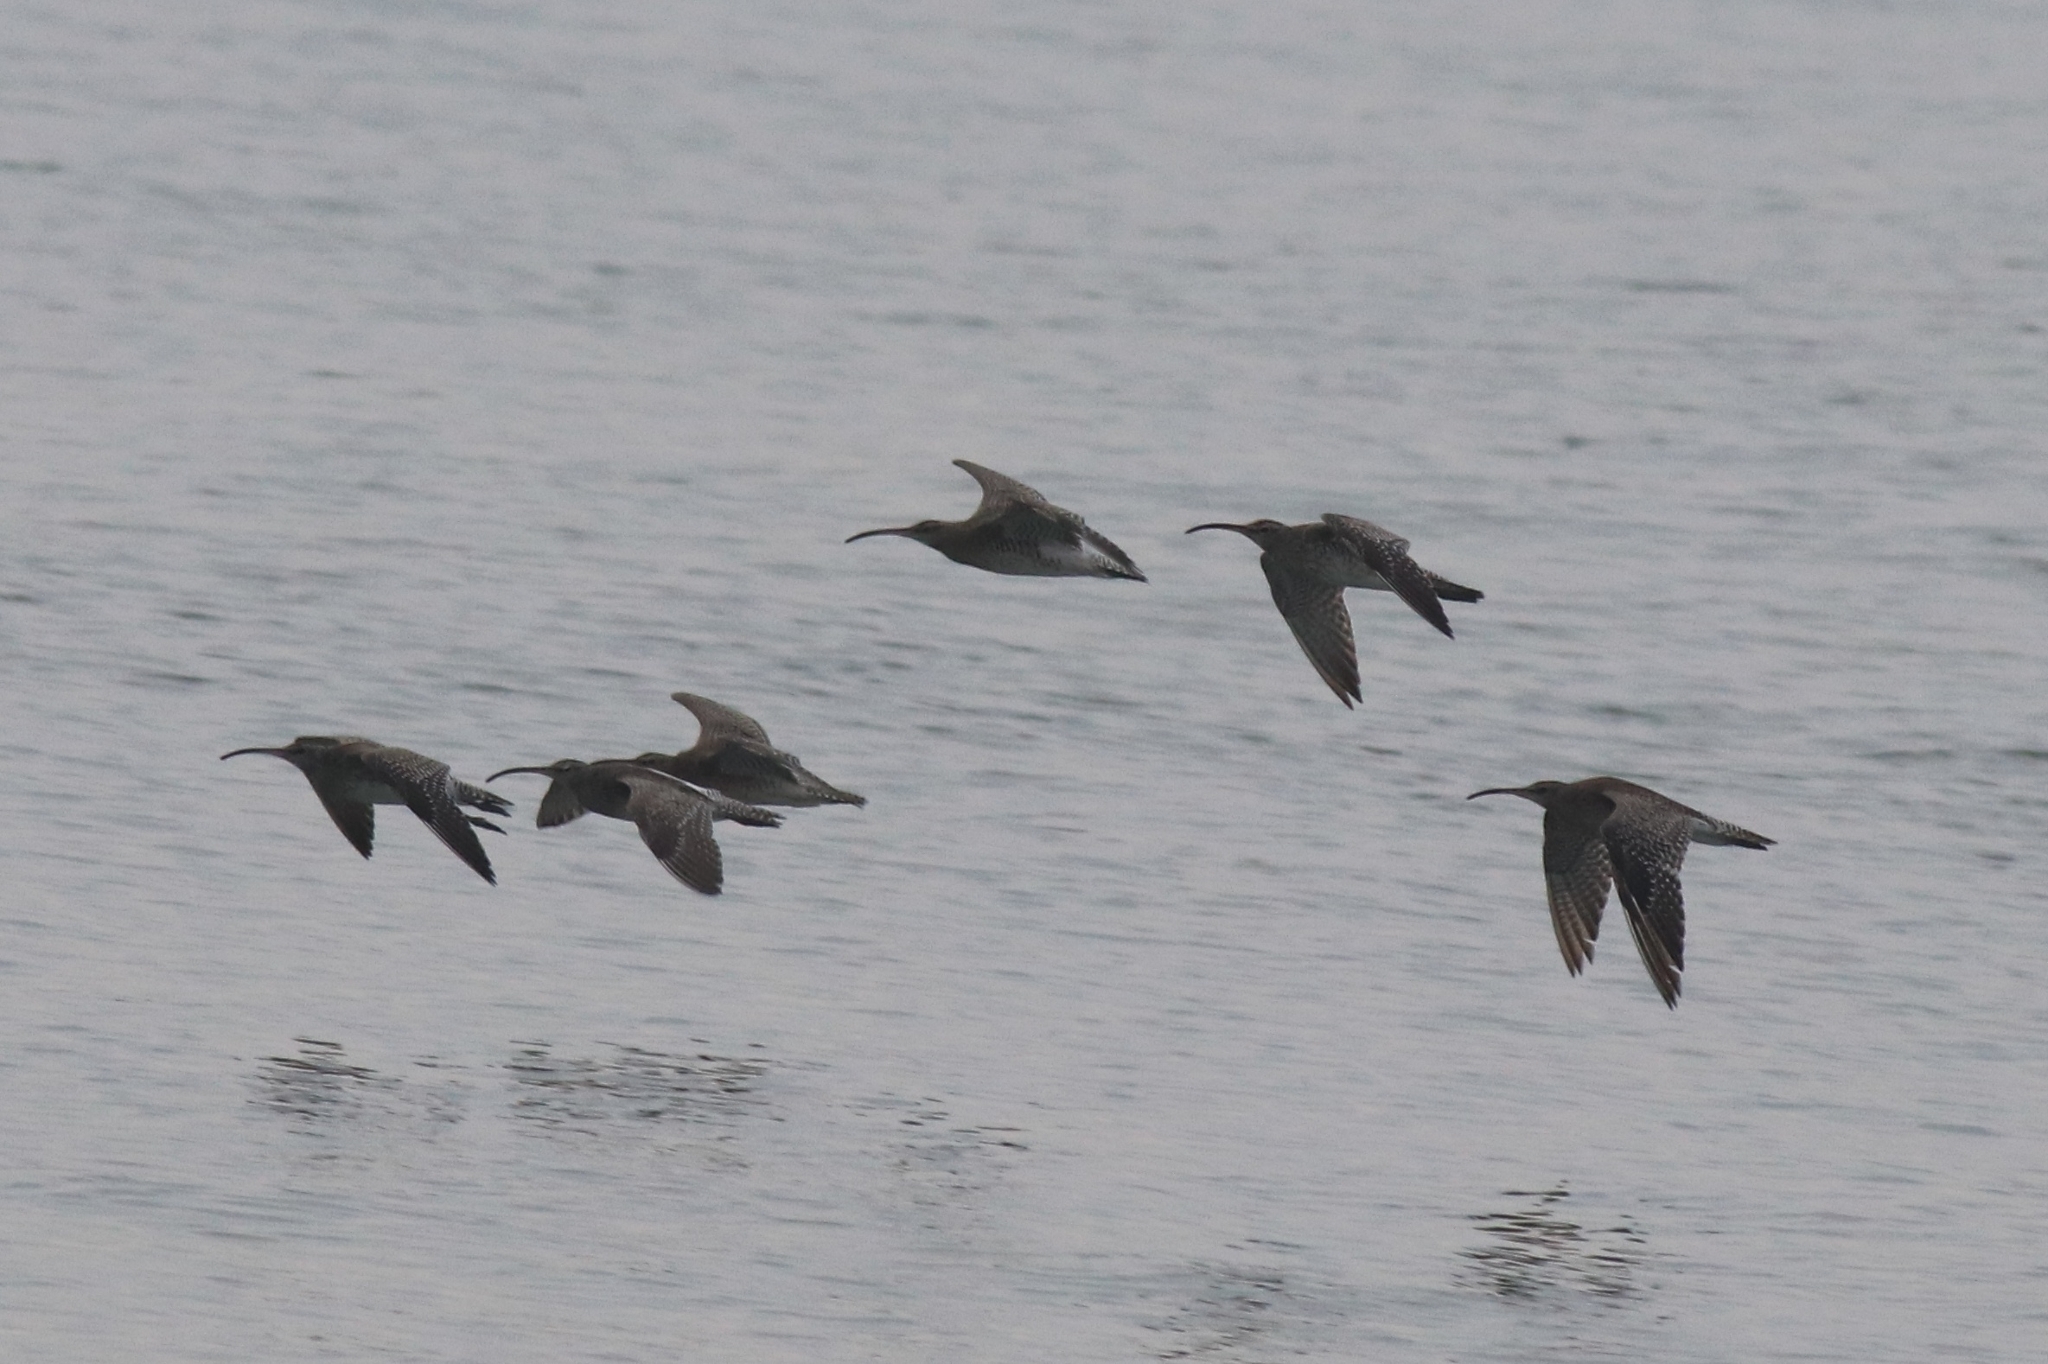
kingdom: Animalia
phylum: Chordata
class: Aves
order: Charadriiformes
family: Scolopacidae
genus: Numenius
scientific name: Numenius phaeopus
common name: Whimbrel
